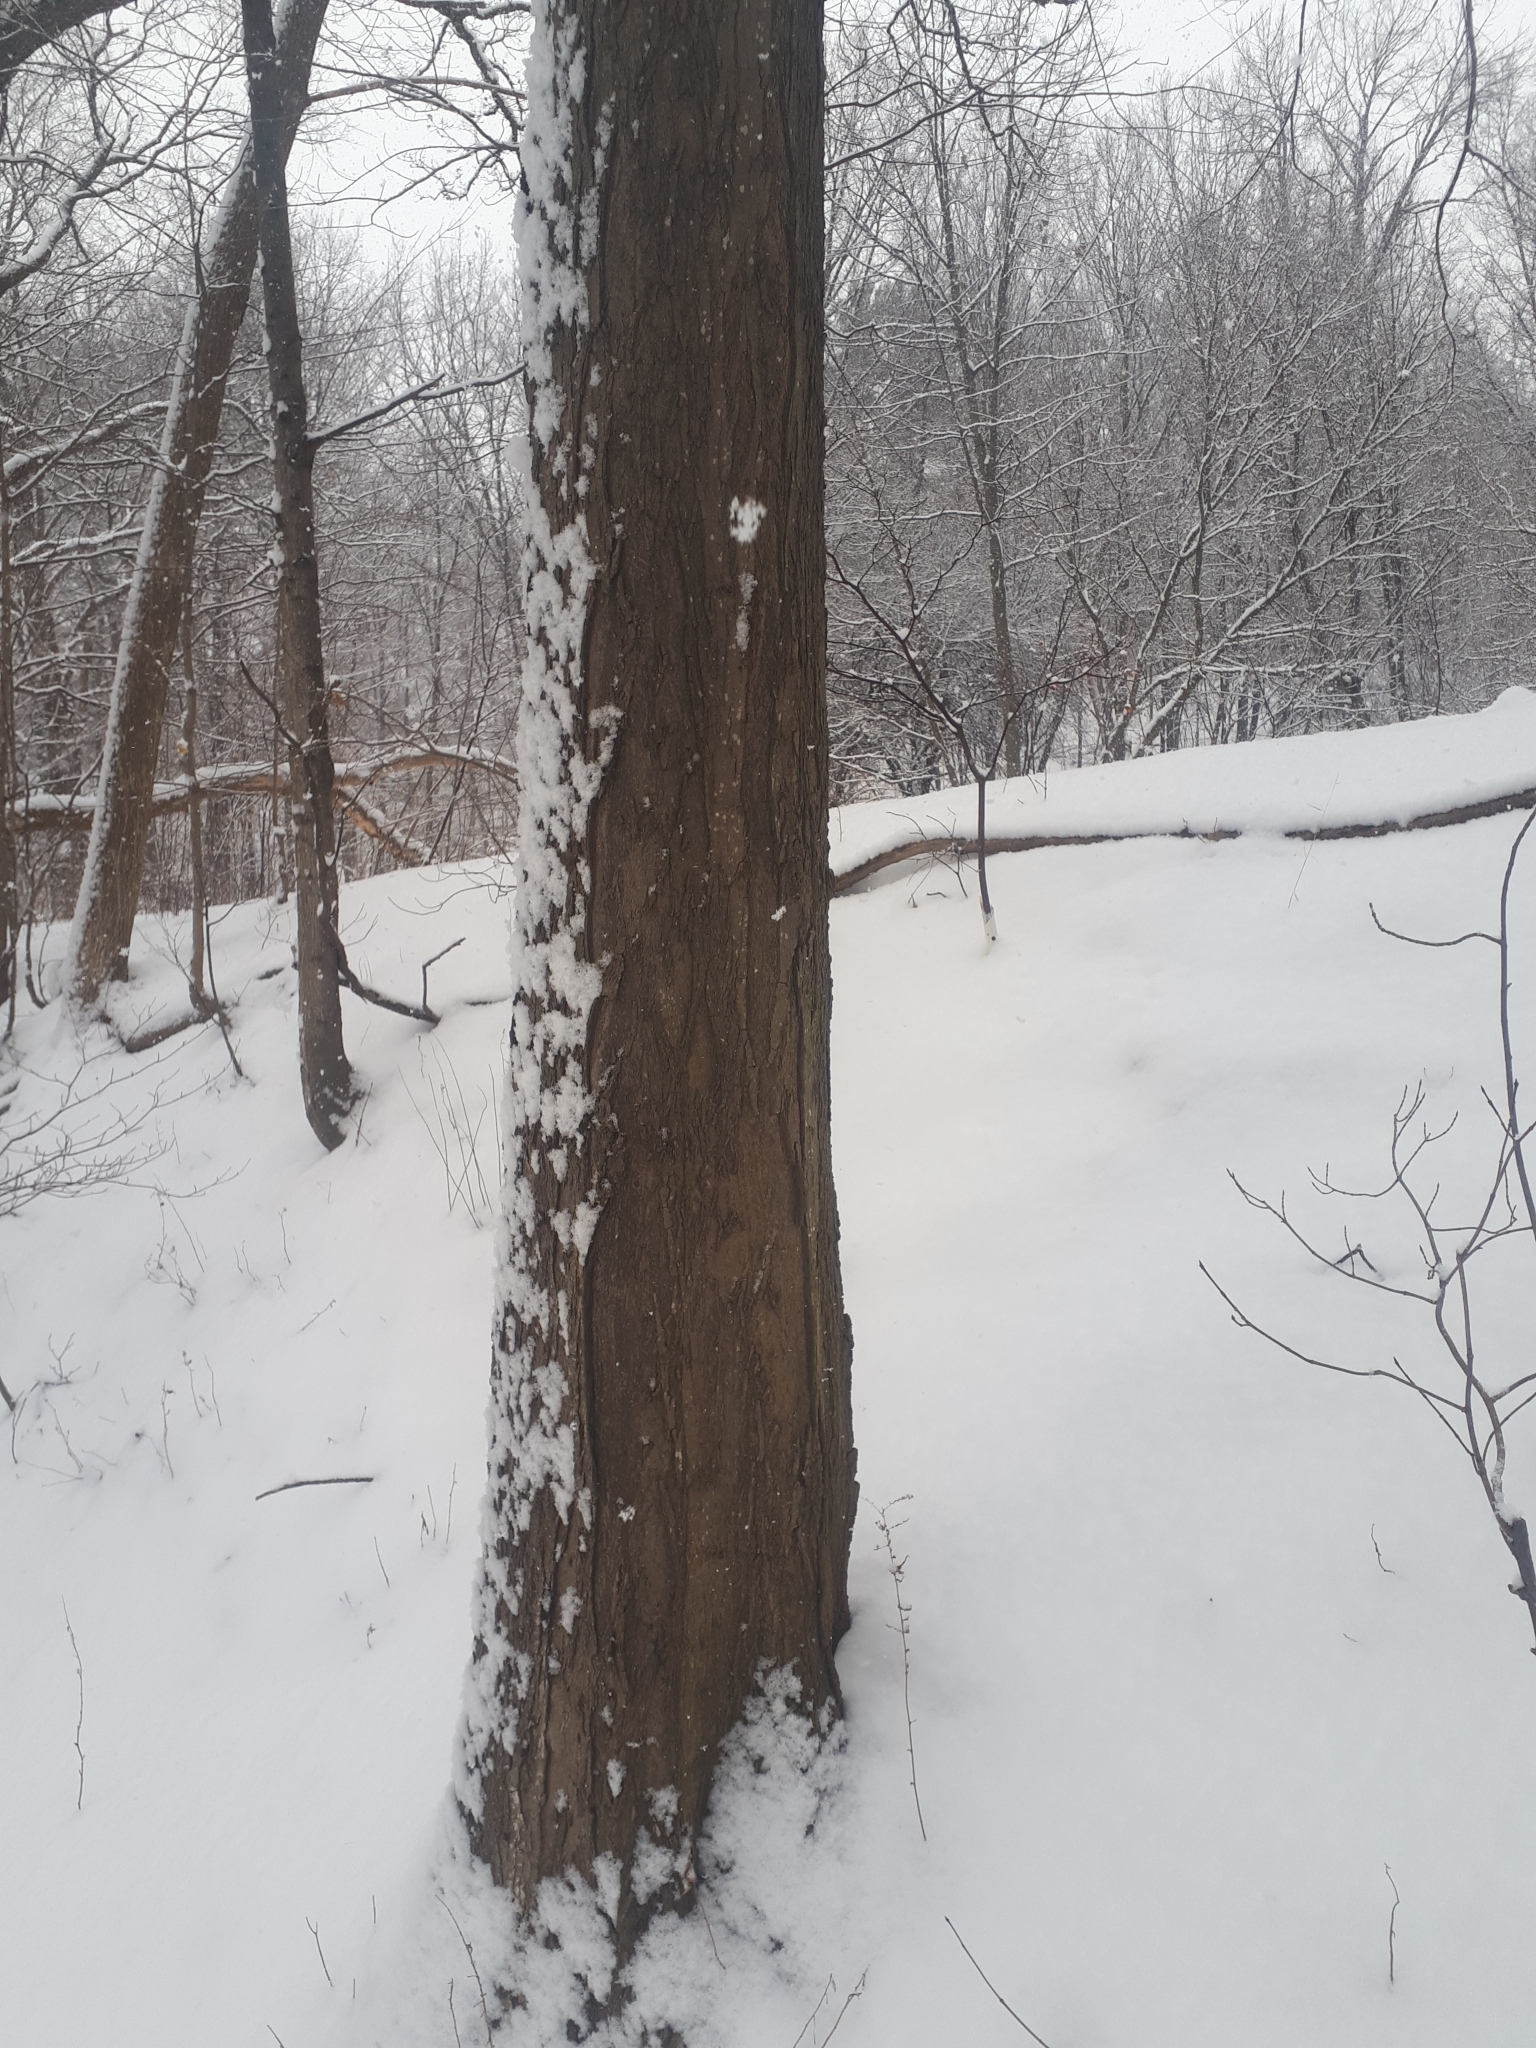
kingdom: Plantae
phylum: Tracheophyta
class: Magnoliopsida
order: Sapindales
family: Sapindaceae
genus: Acer
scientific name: Acer saccharum
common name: Sugar maple
